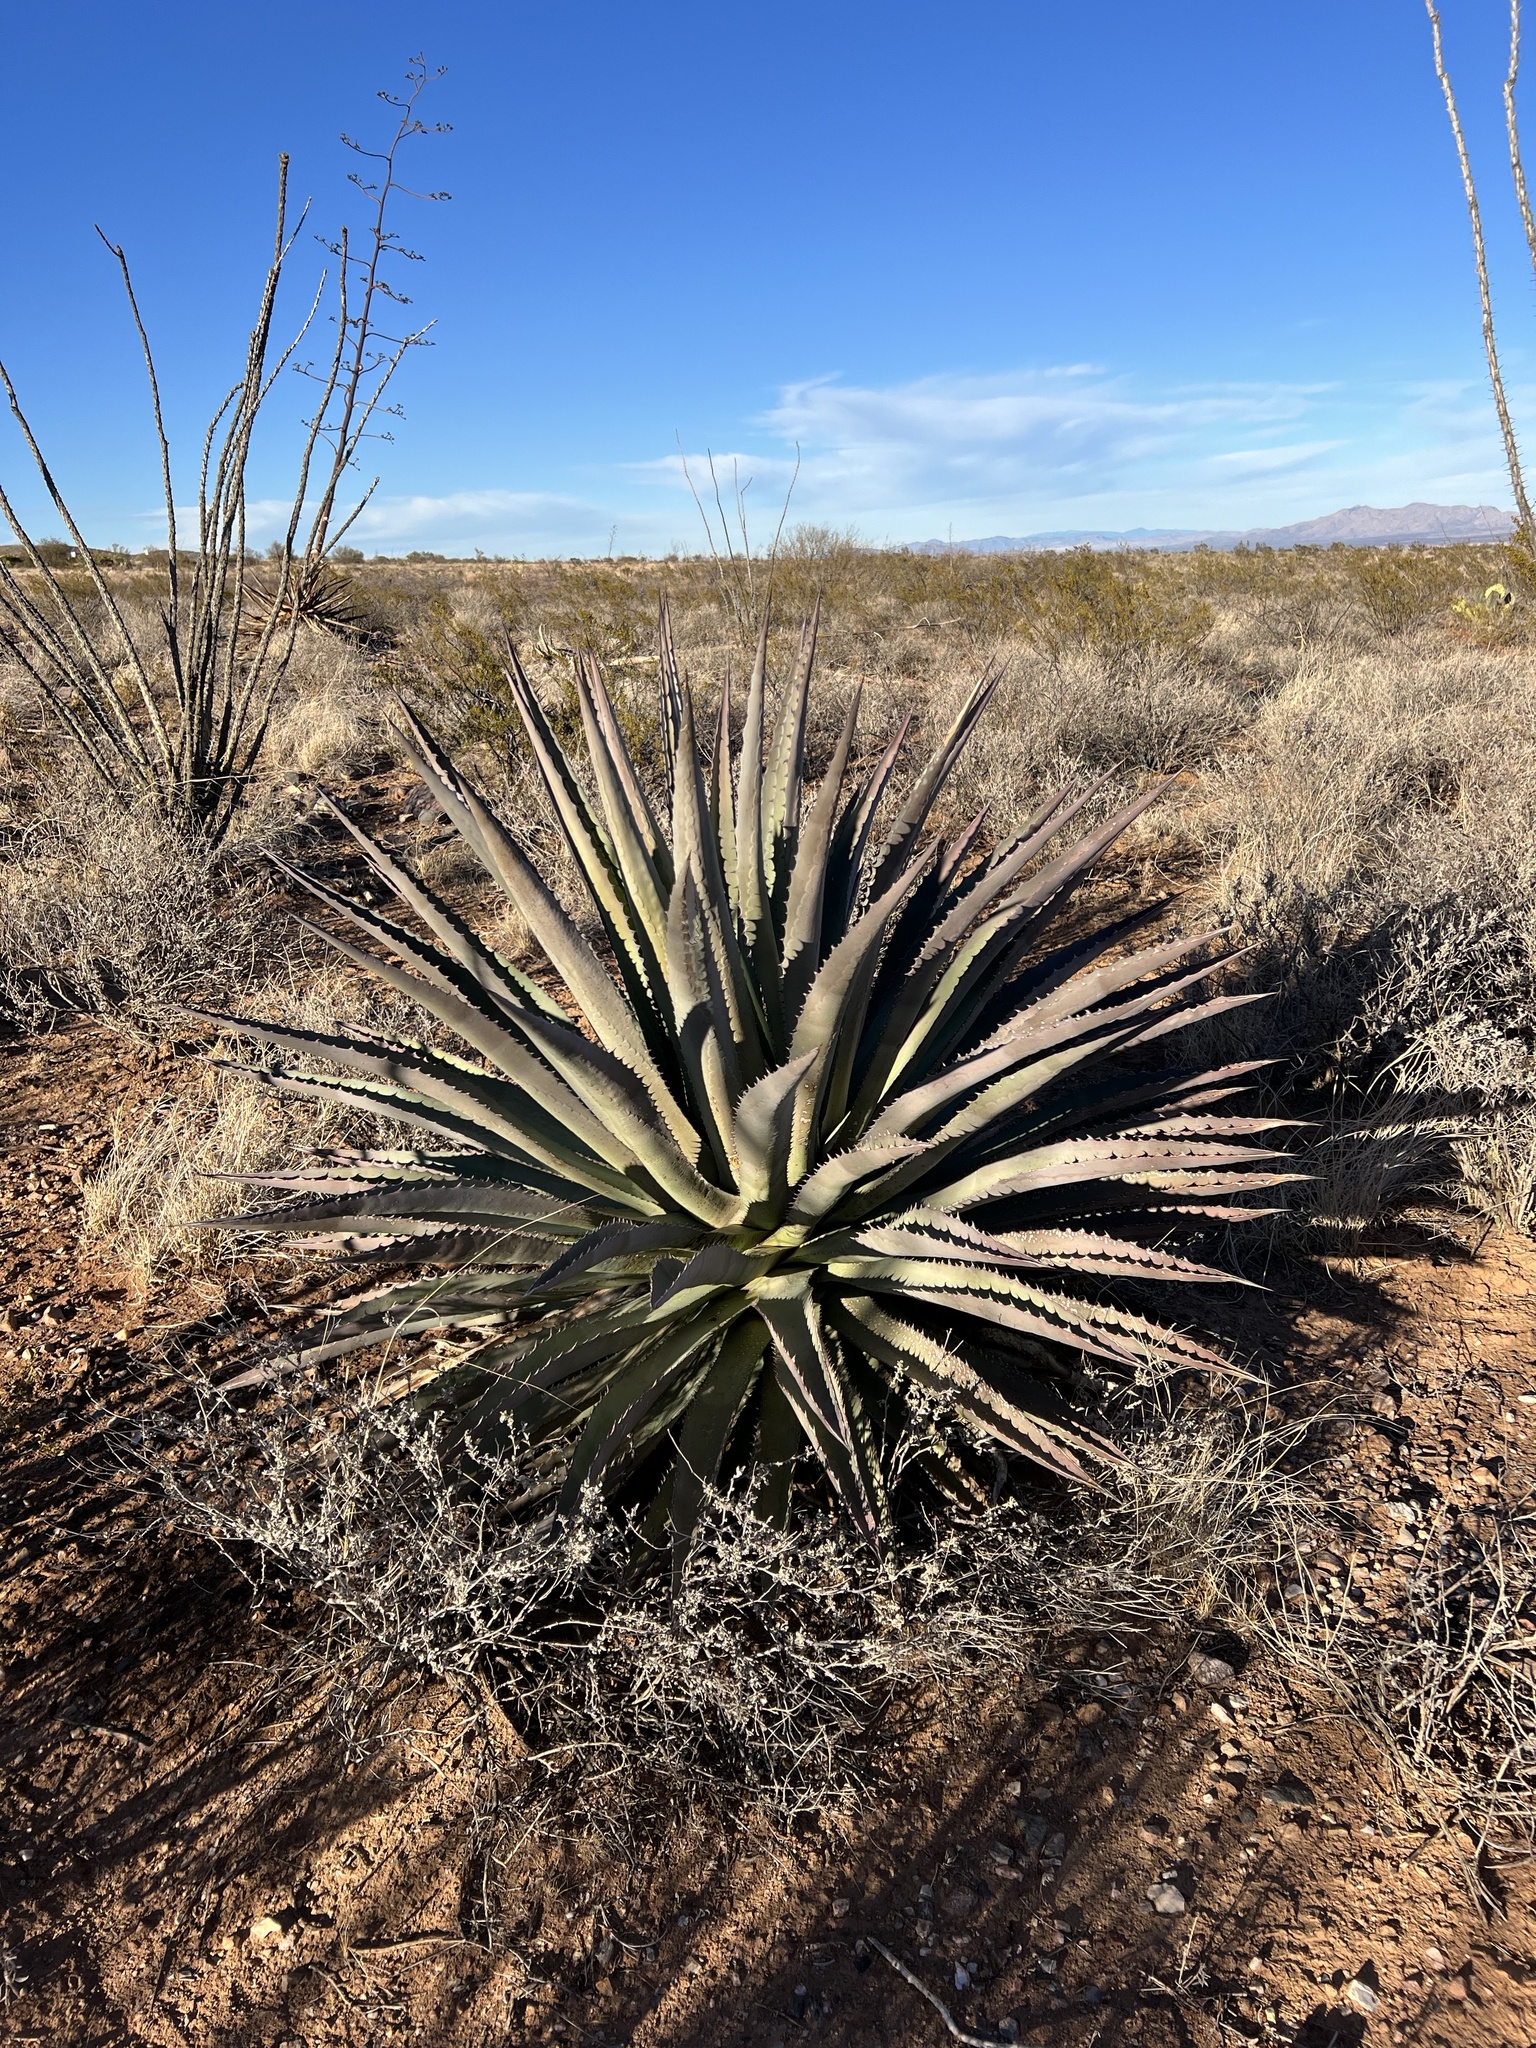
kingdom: Plantae
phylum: Tracheophyta
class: Liliopsida
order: Asparagales
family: Asparagaceae
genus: Agave
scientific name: Agave palmeri
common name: Palmer agave
